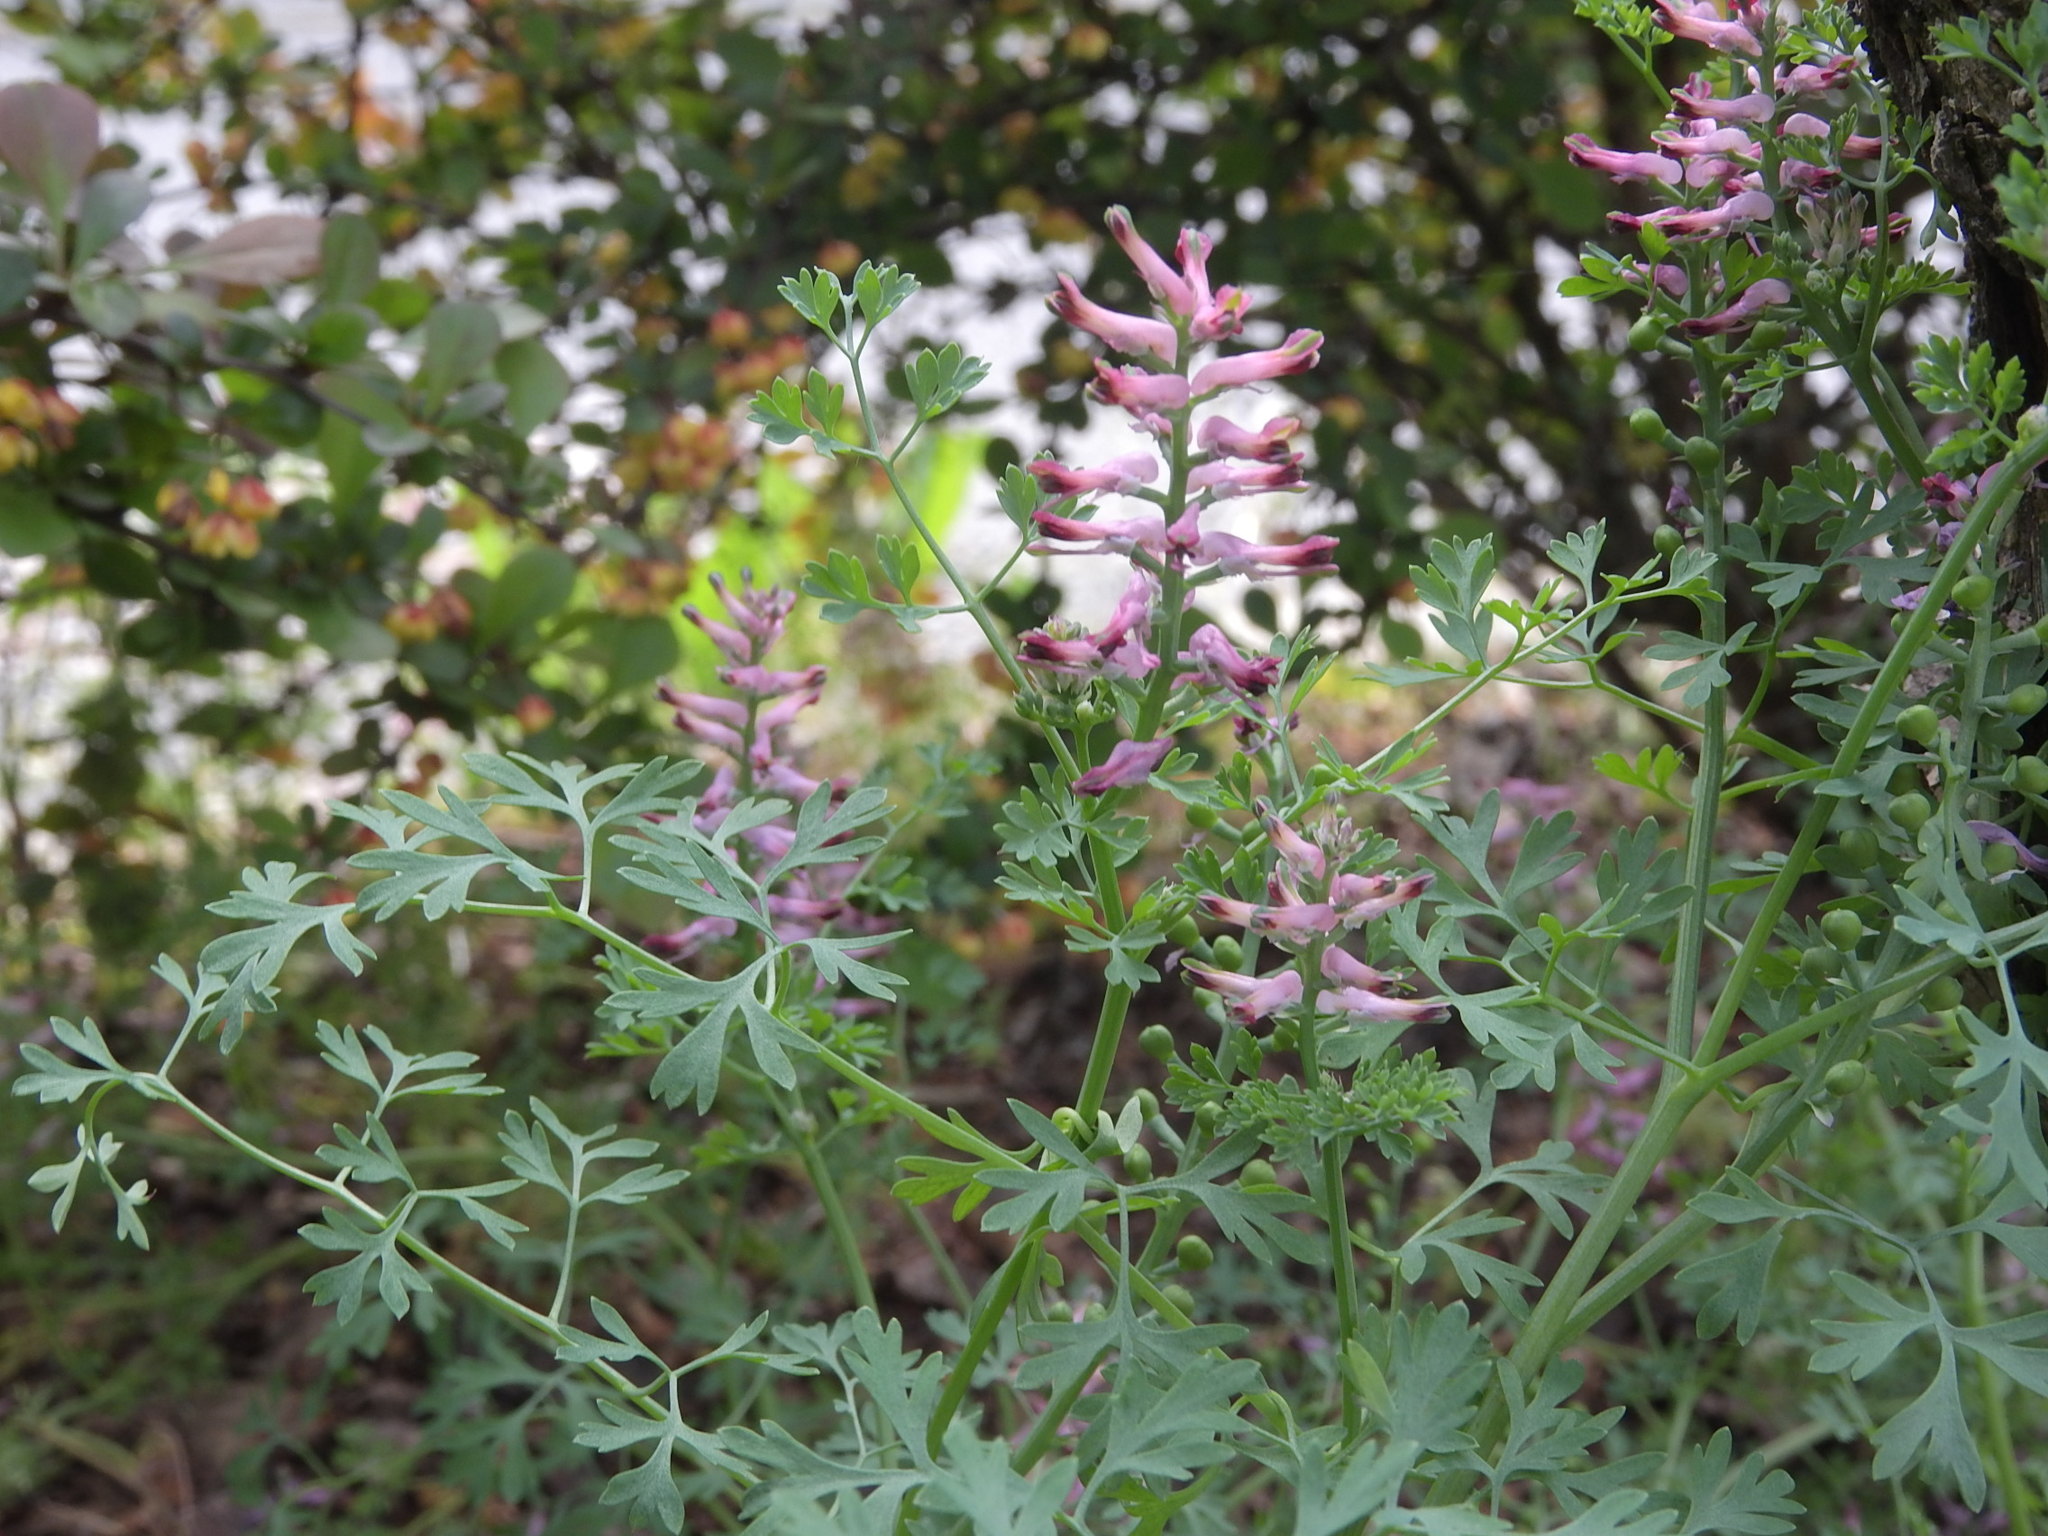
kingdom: Plantae
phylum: Tracheophyta
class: Magnoliopsida
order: Ranunculales
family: Papaveraceae
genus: Fumaria
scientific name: Fumaria officinalis
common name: Common fumitory
